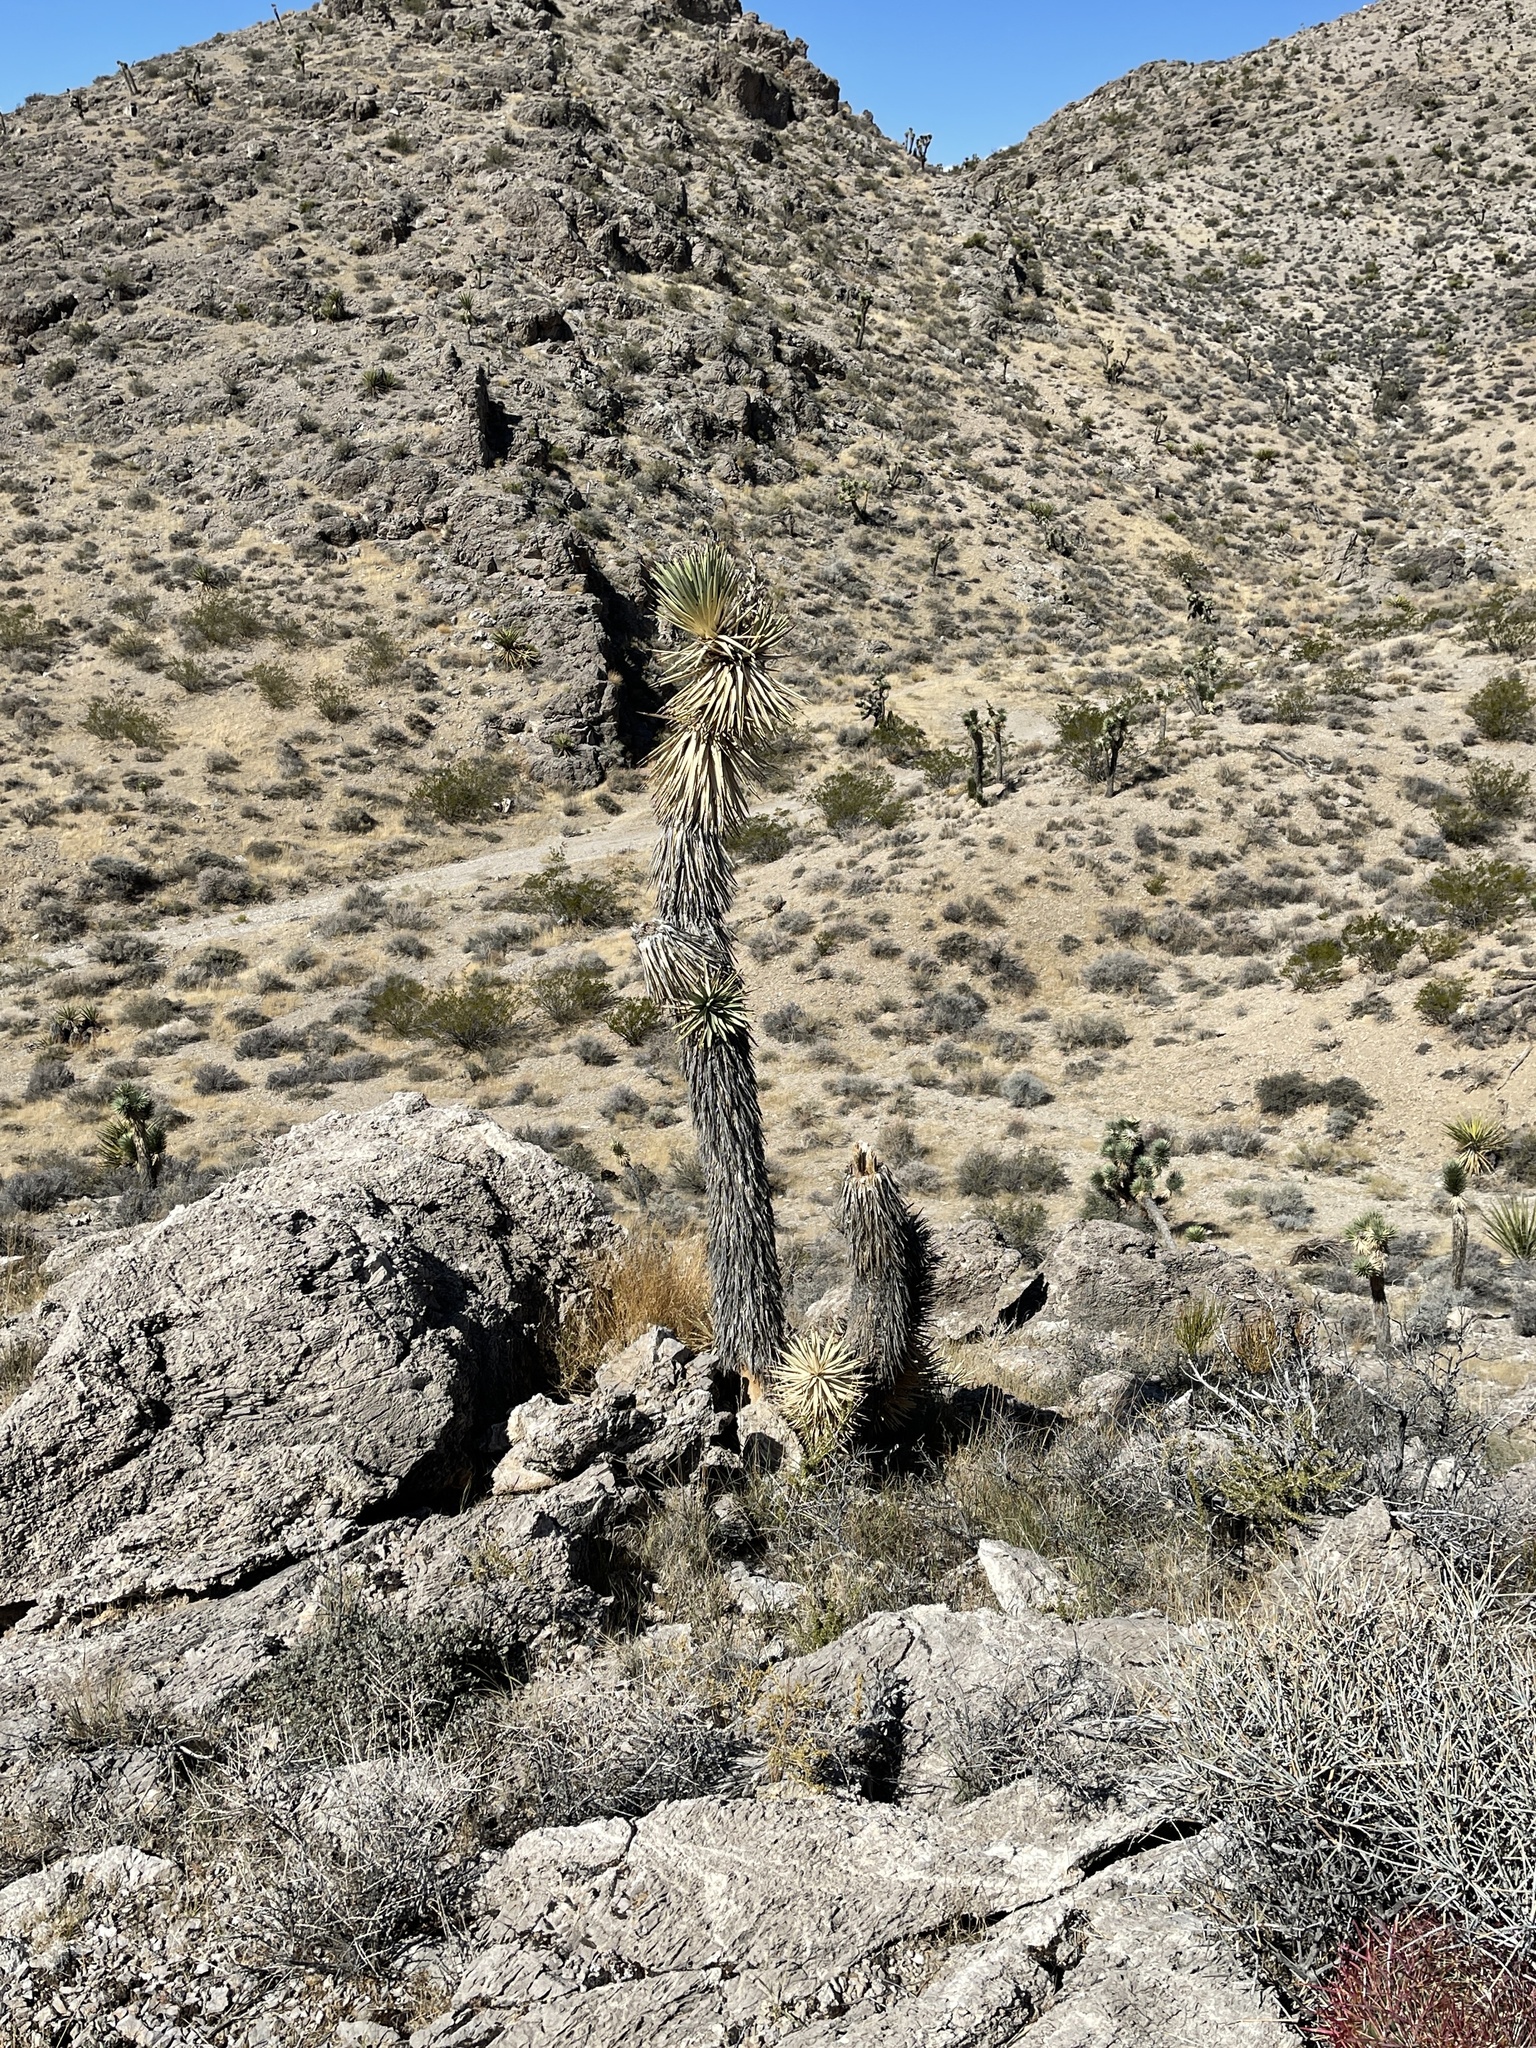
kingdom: Plantae
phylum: Tracheophyta
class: Liliopsida
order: Asparagales
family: Asparagaceae
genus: Yucca
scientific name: Yucca brevifolia
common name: Joshua tree
